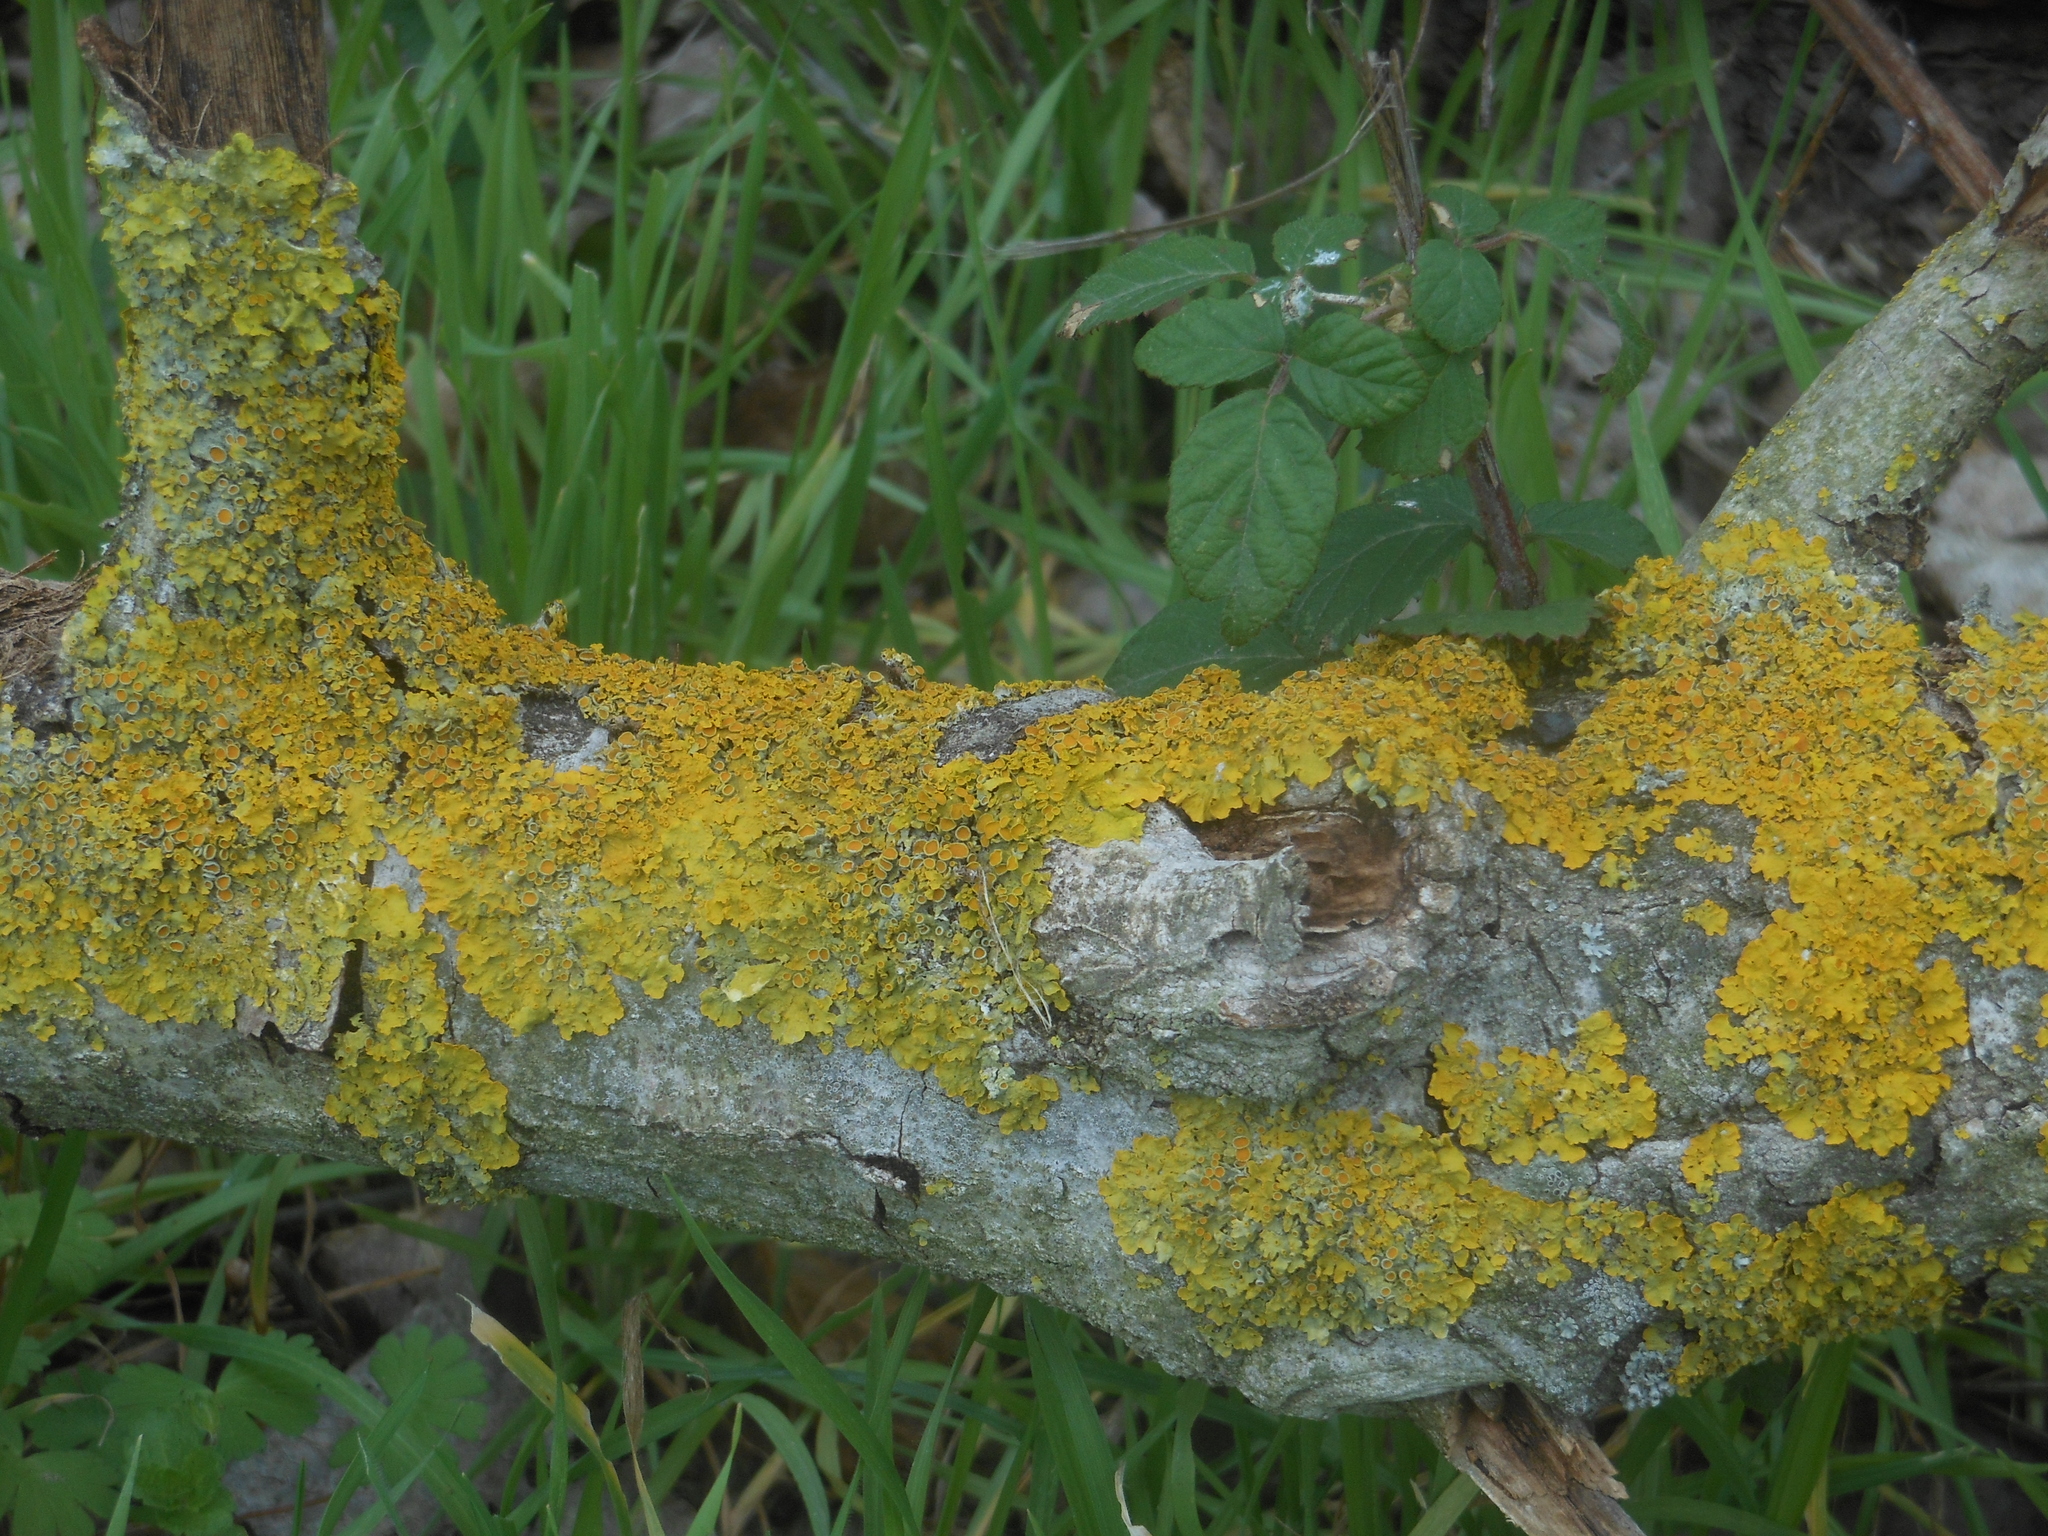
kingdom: Fungi
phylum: Ascomycota
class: Lecanoromycetes
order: Teloschistales
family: Teloschistaceae
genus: Xanthoria
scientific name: Xanthoria parietina
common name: Common orange lichen
